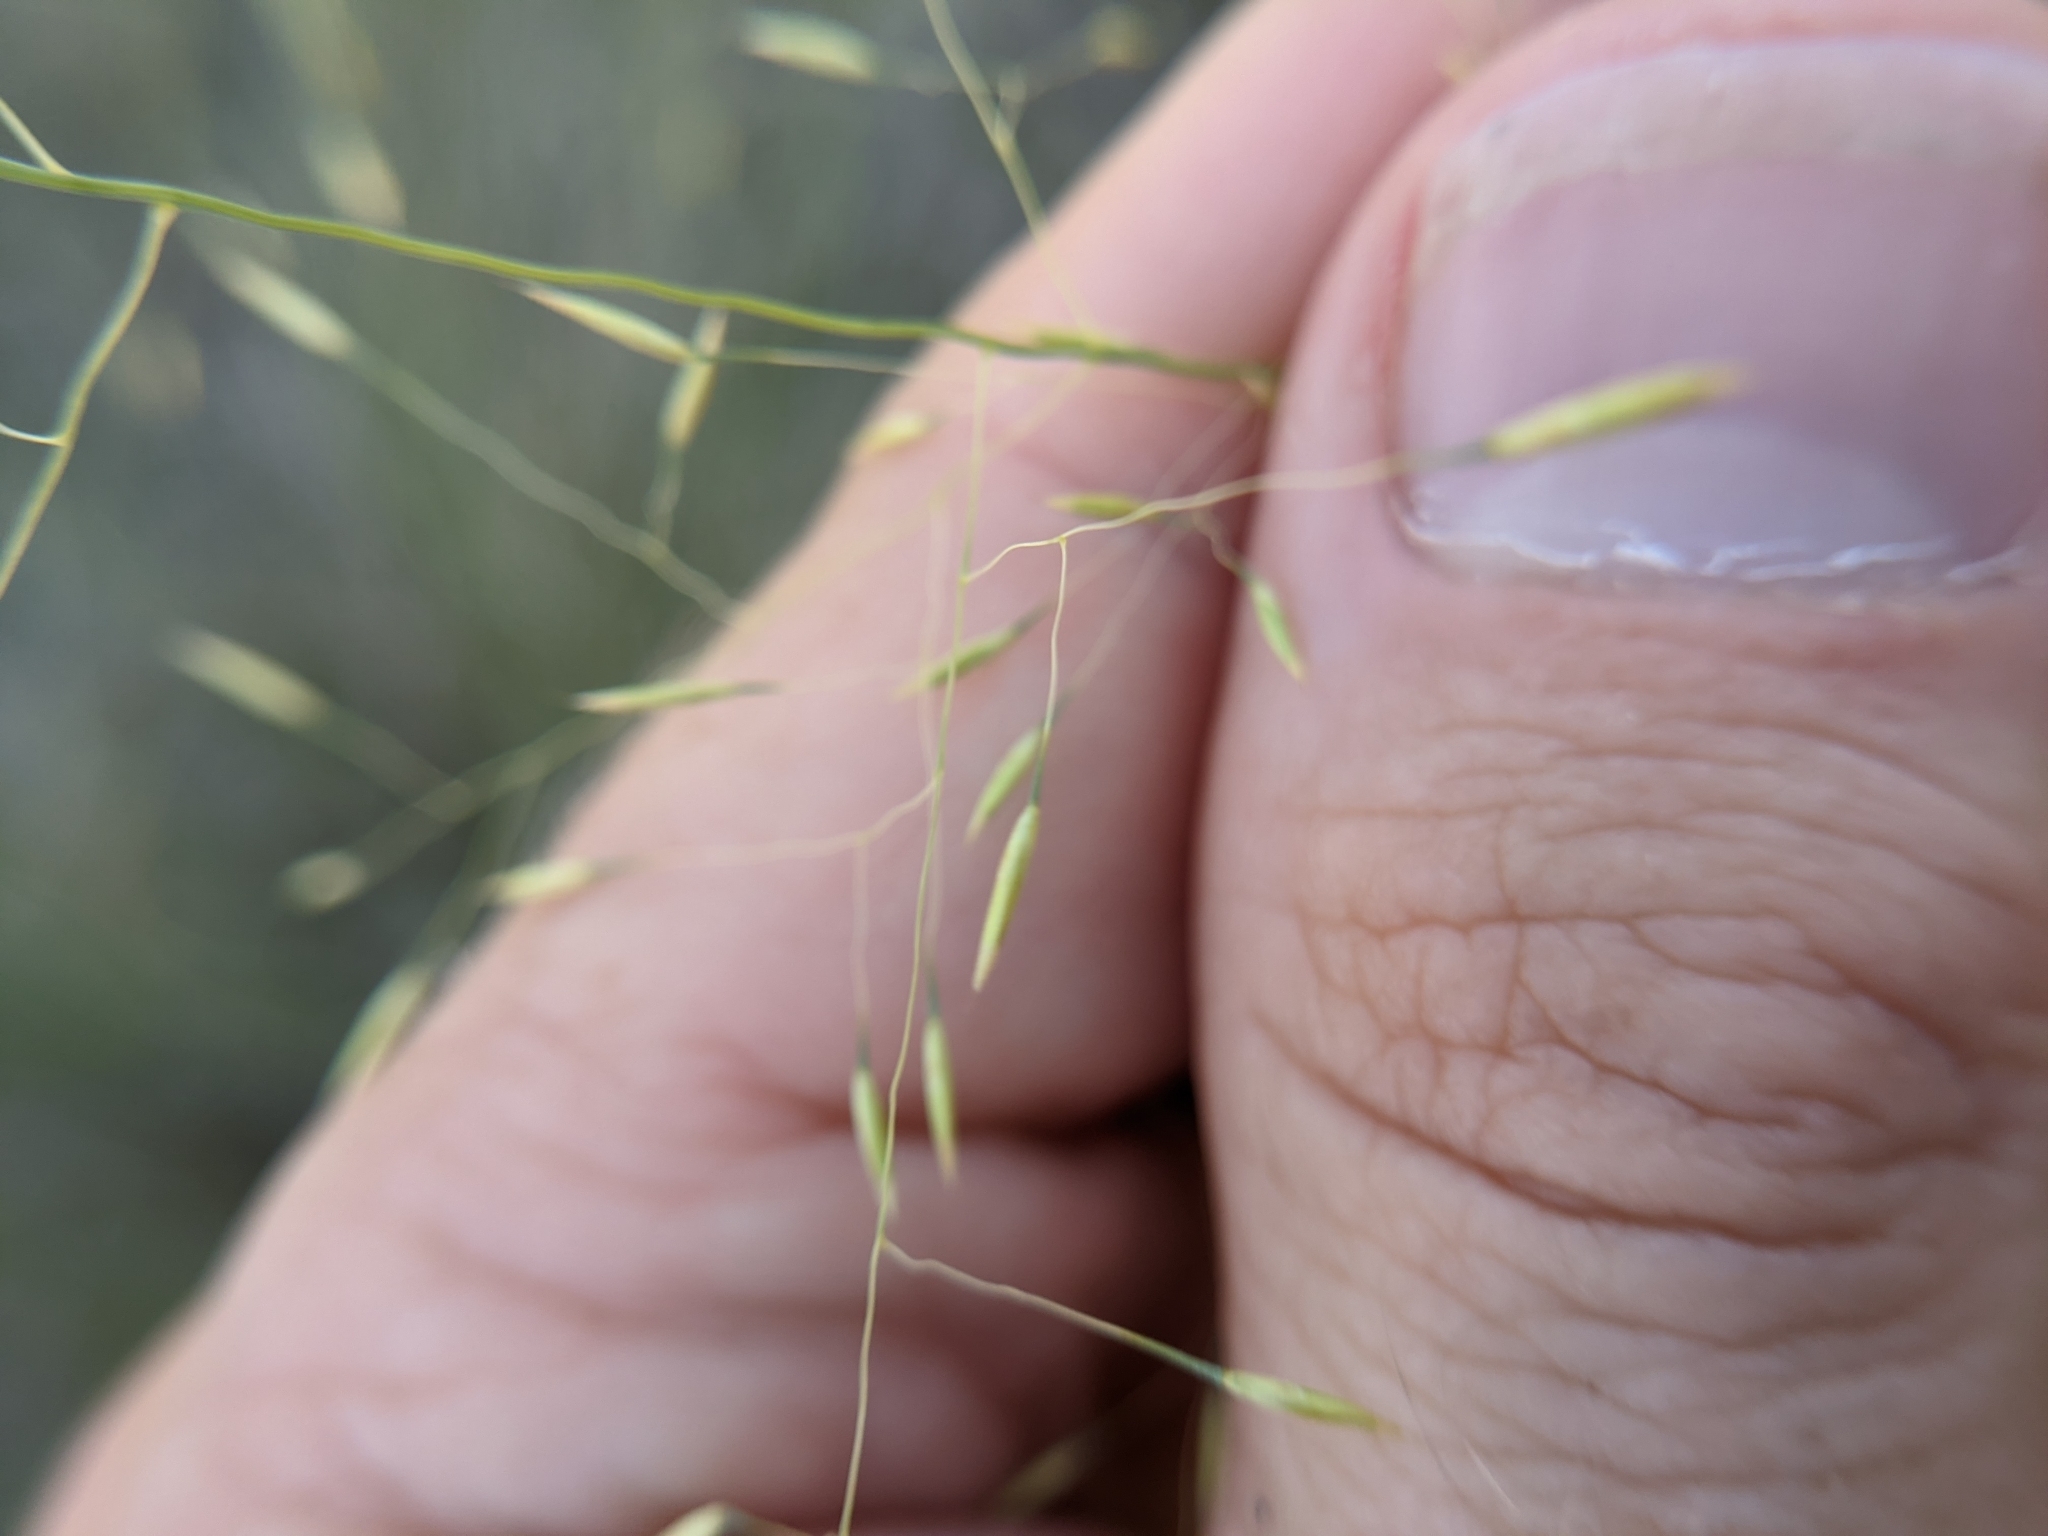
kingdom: Plantae
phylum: Tracheophyta
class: Liliopsida
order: Poales
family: Poaceae
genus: Muhlenbergia
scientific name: Muhlenbergia reverchonii
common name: Seep muhly
